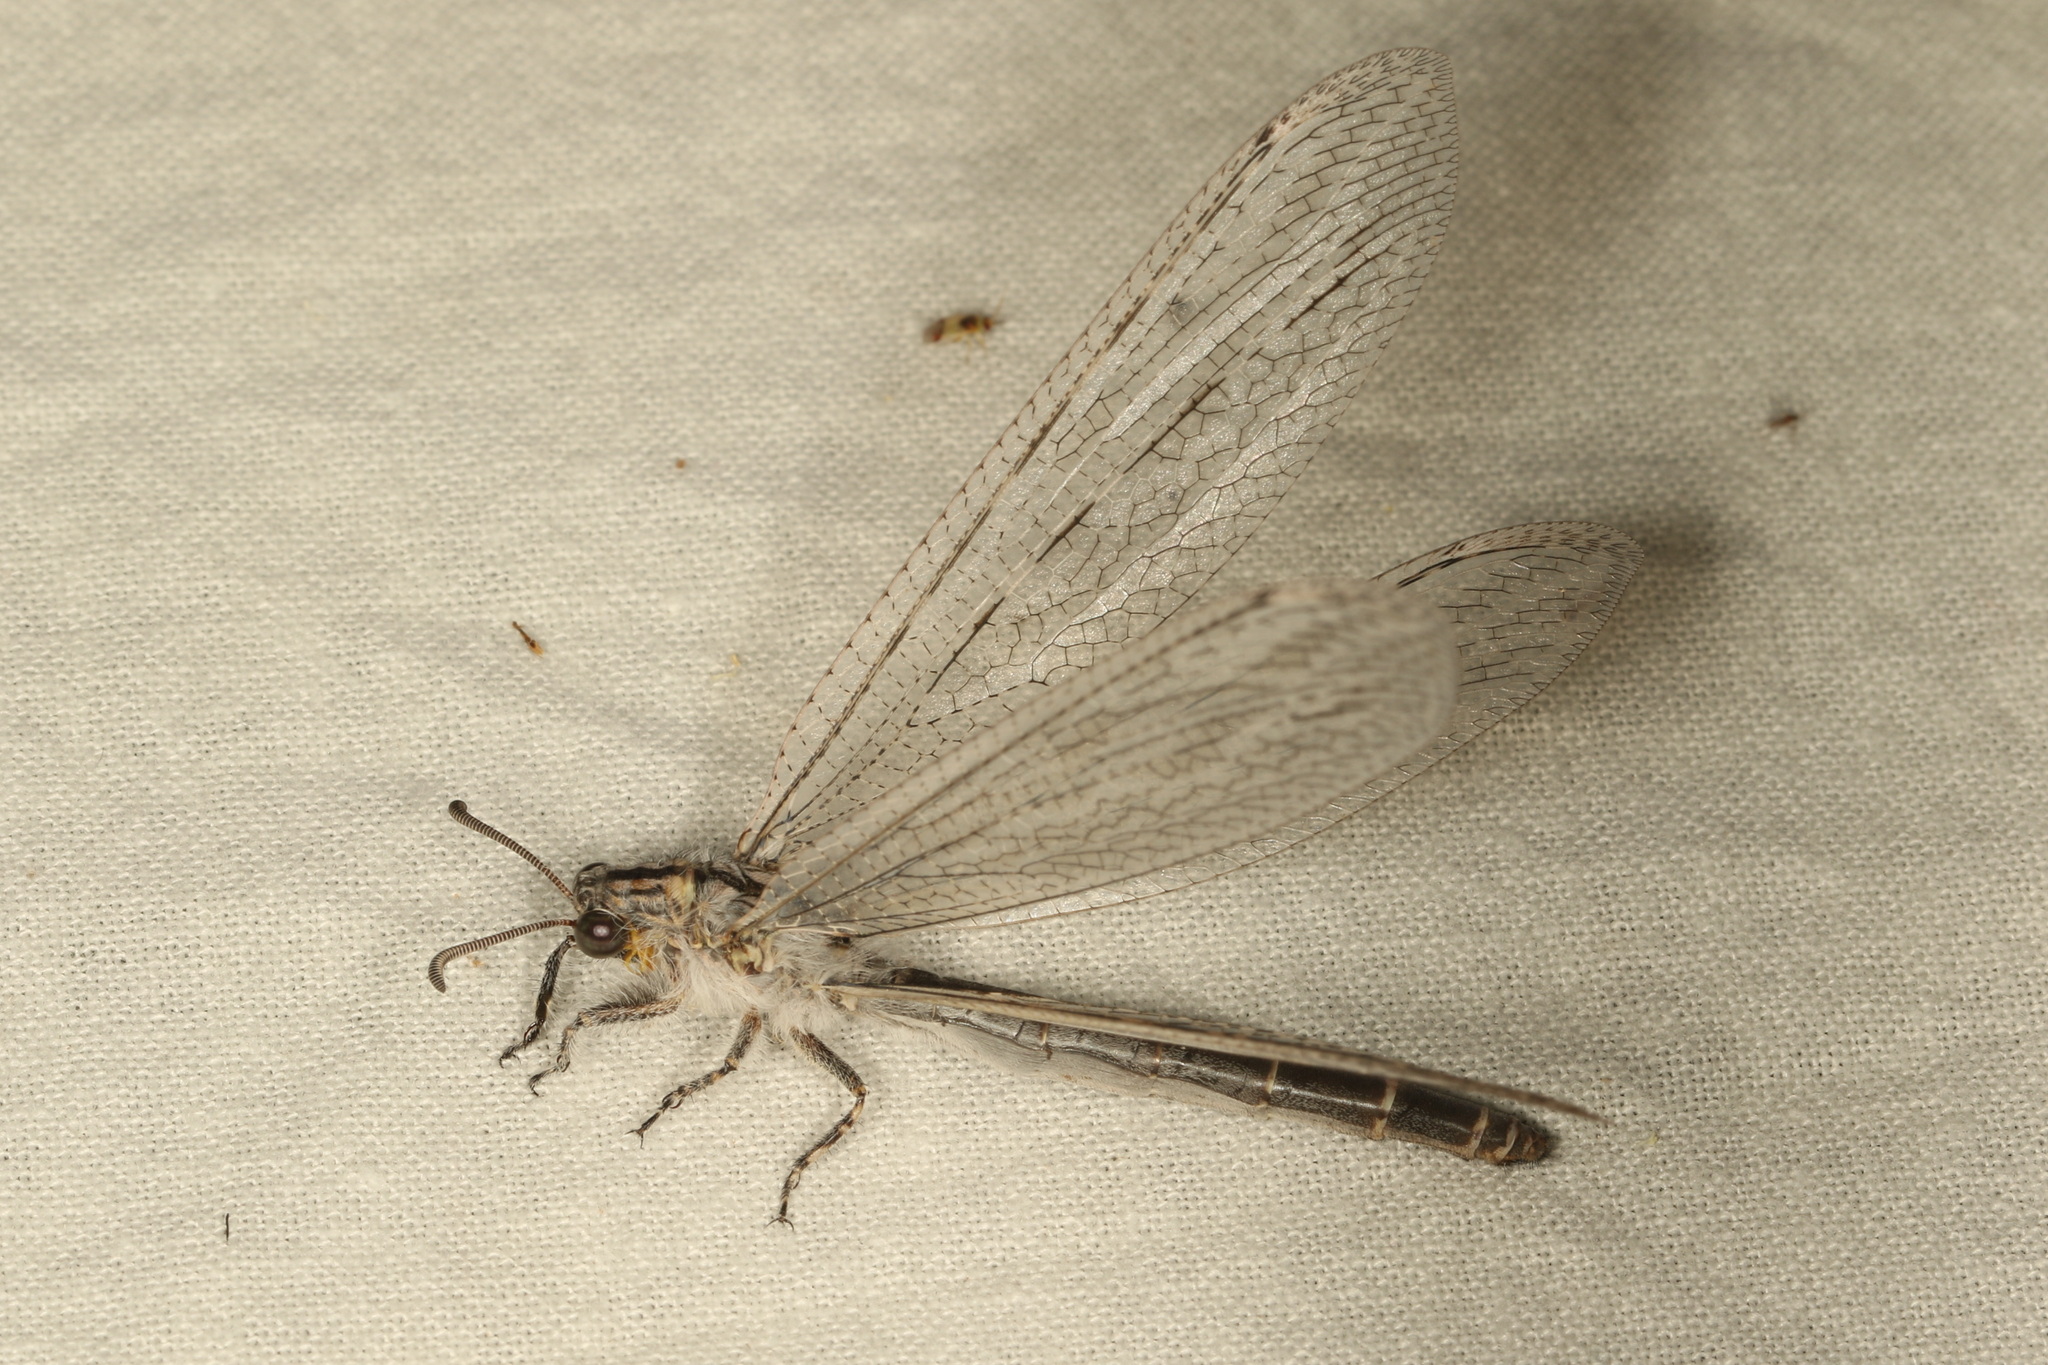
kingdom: Animalia
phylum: Arthropoda
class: Insecta
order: Neuroptera
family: Myrmeleontidae
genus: Heoclisis
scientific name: Heoclisis fundata
